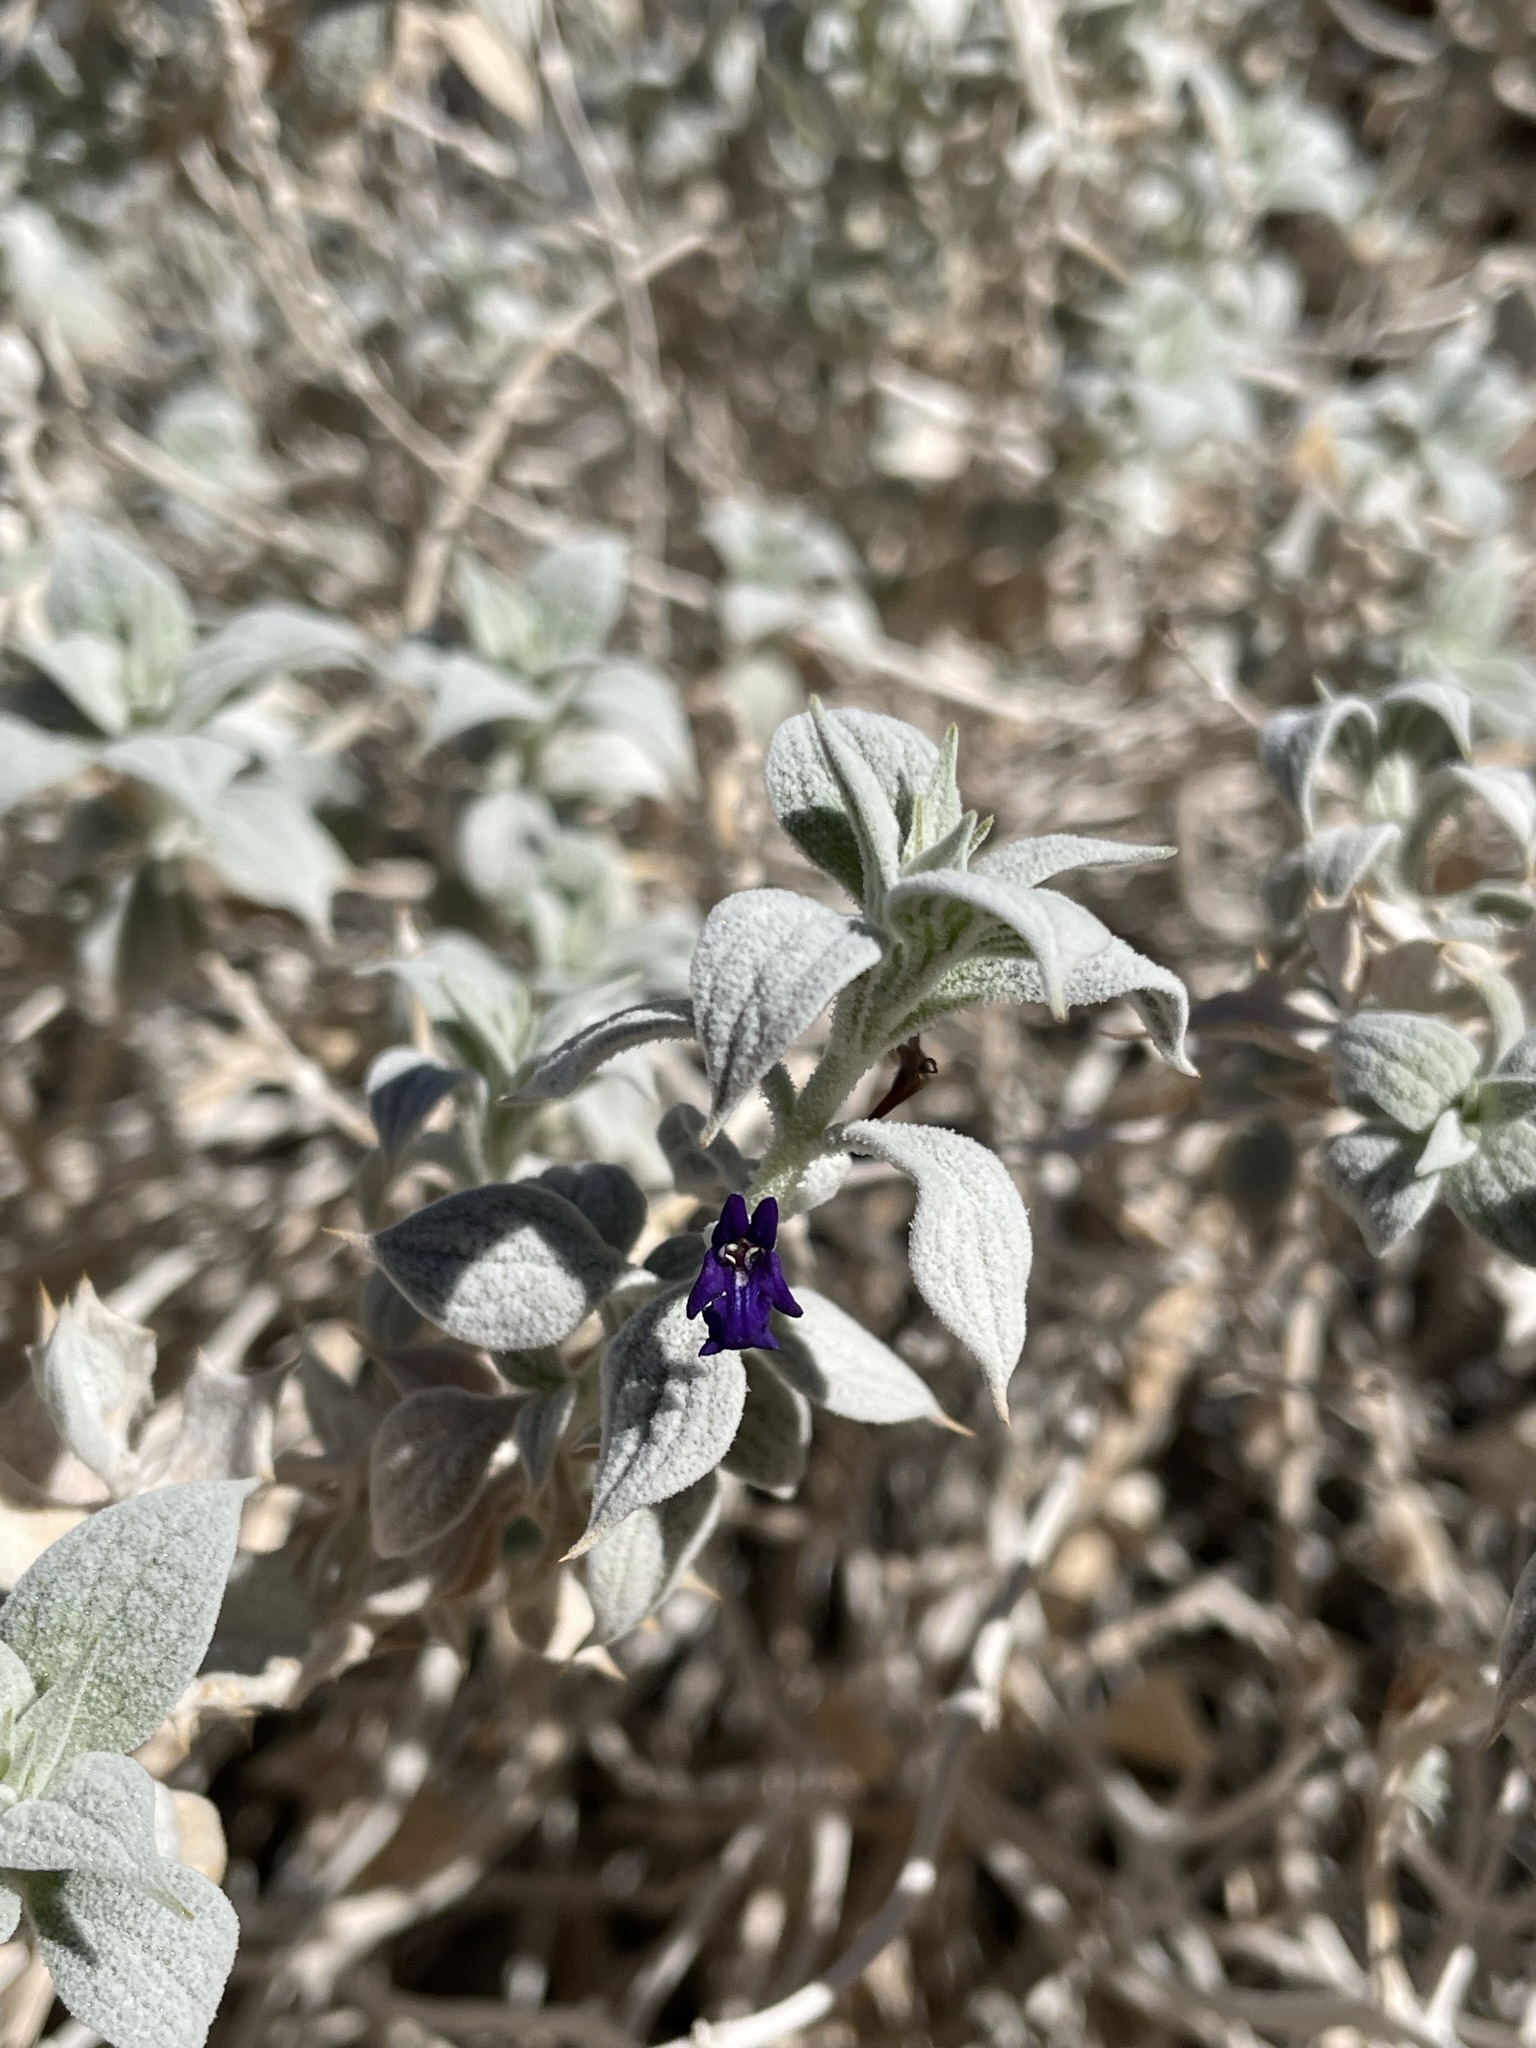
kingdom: Plantae
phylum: Tracheophyta
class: Magnoliopsida
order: Lamiales
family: Lamiaceae
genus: Salvia
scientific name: Salvia funerea
